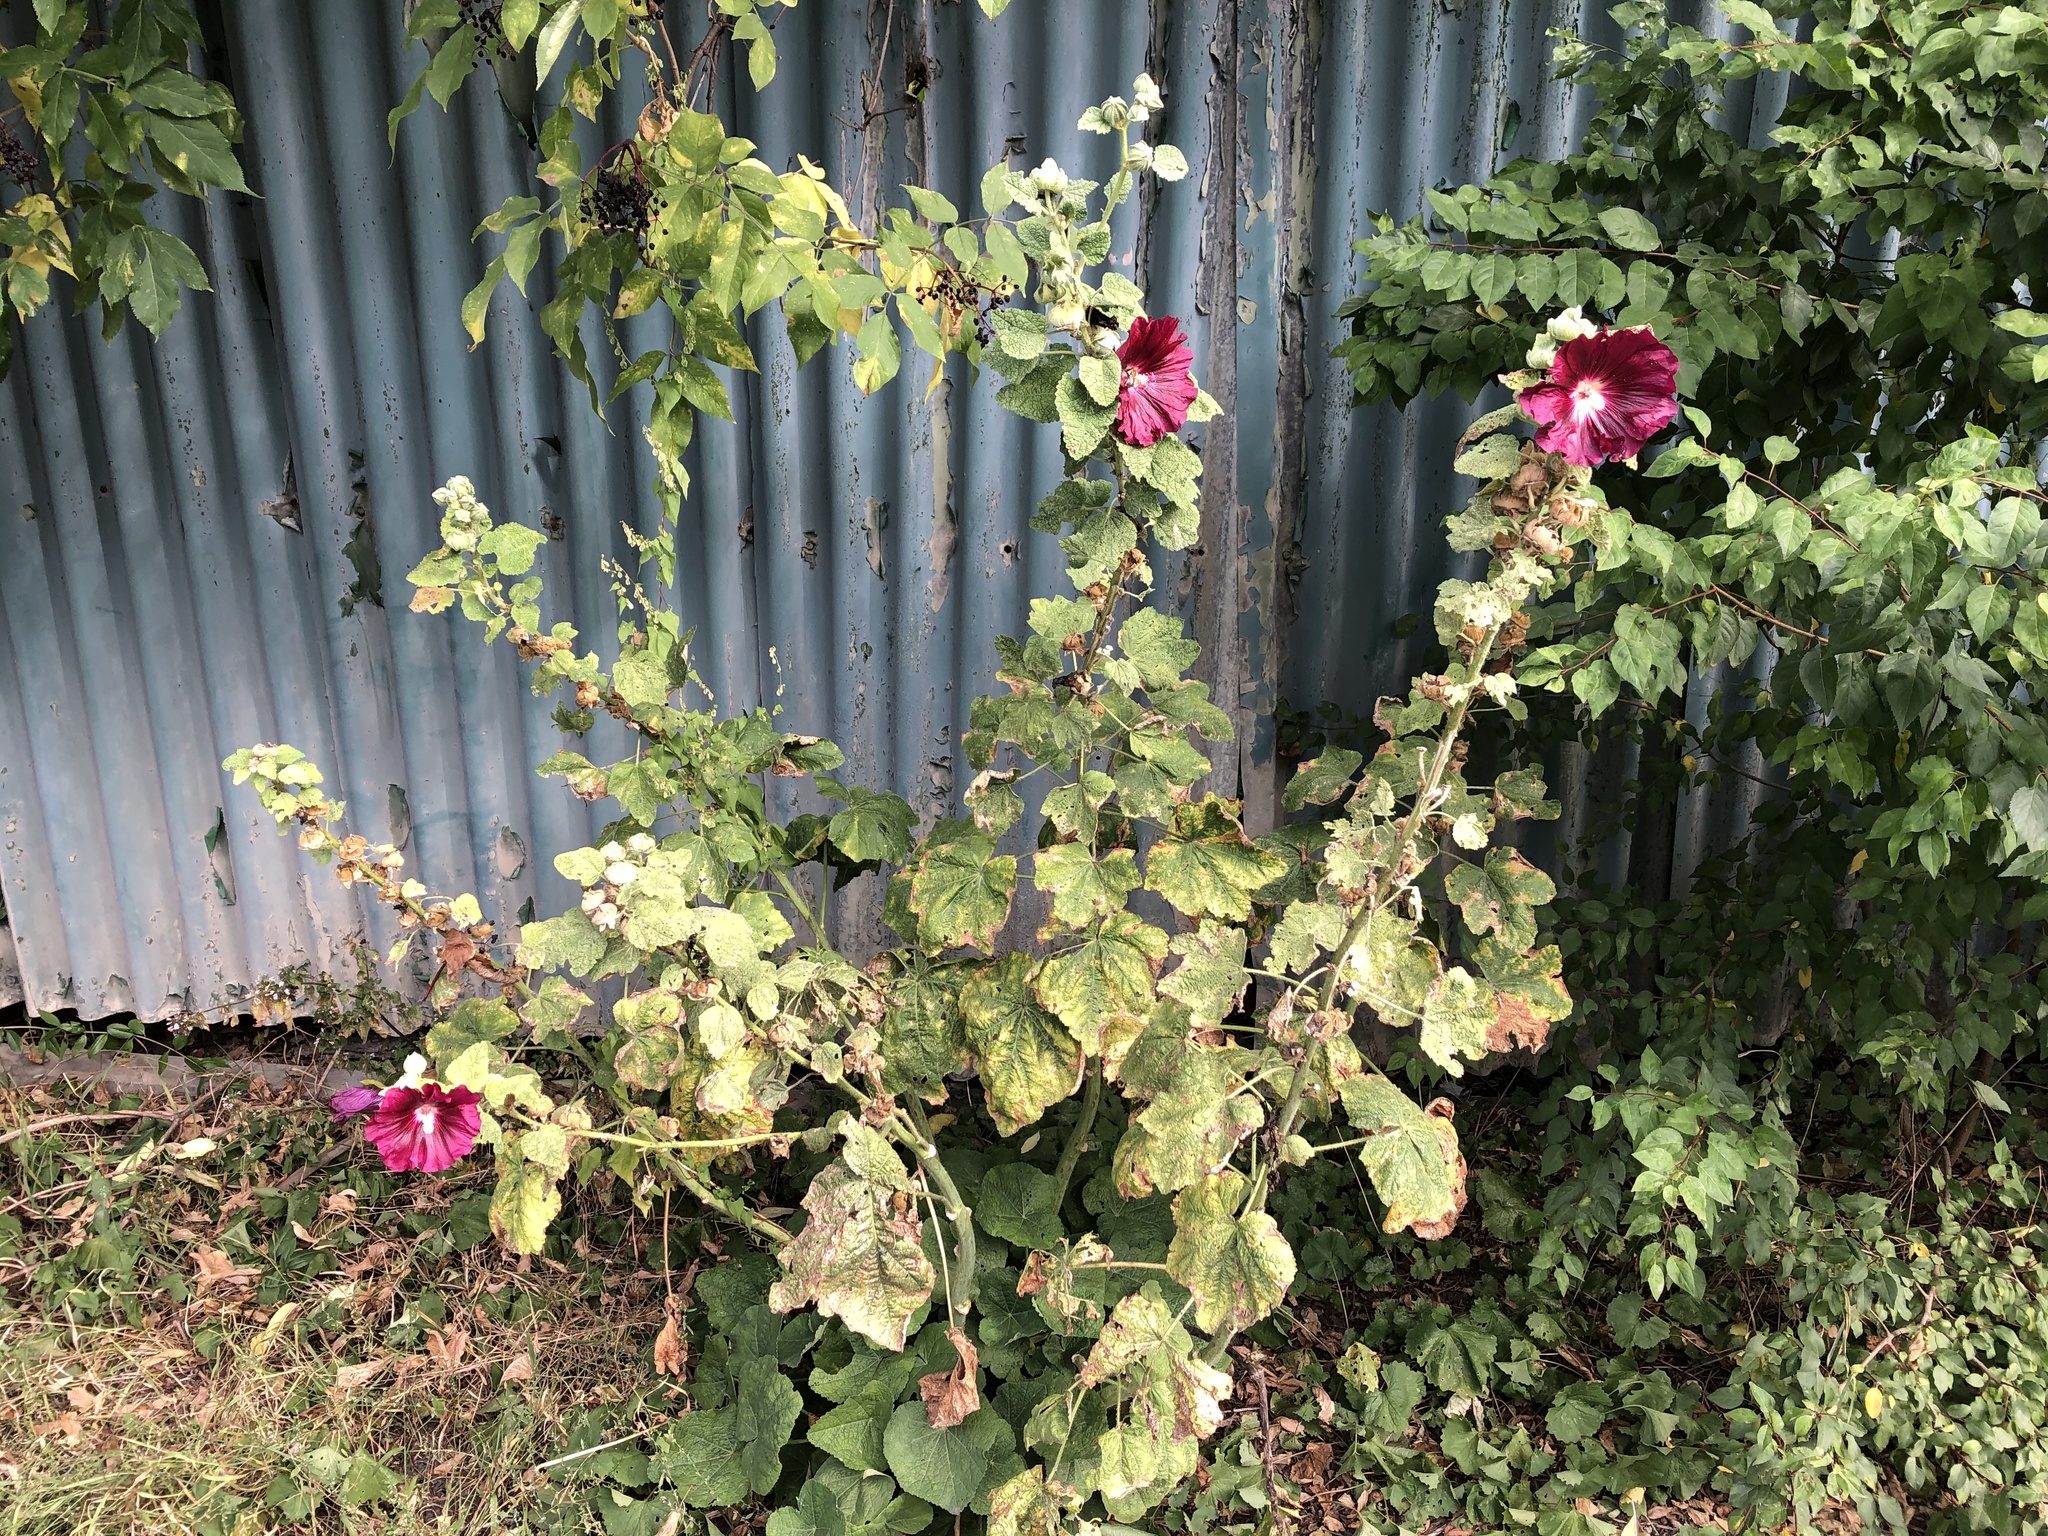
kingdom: Plantae
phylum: Tracheophyta
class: Magnoliopsida
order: Malvales
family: Malvaceae
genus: Alcea
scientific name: Alcea rosea
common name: Hollyhock
